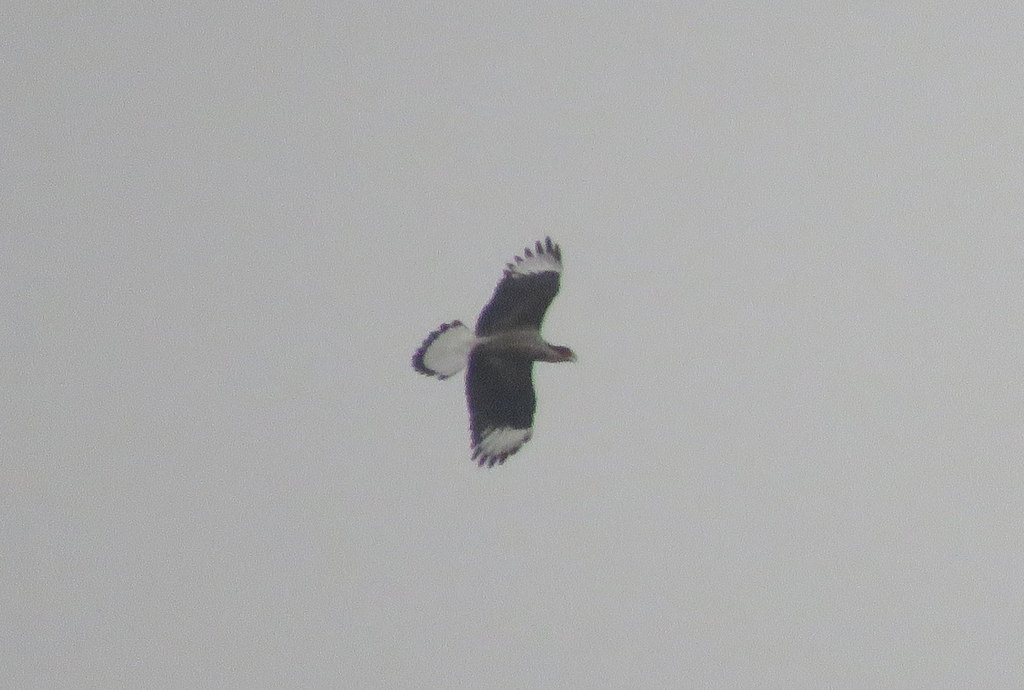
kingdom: Animalia
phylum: Chordata
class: Aves
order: Falconiformes
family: Falconidae
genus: Caracara
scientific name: Caracara plancus
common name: Southern caracara
